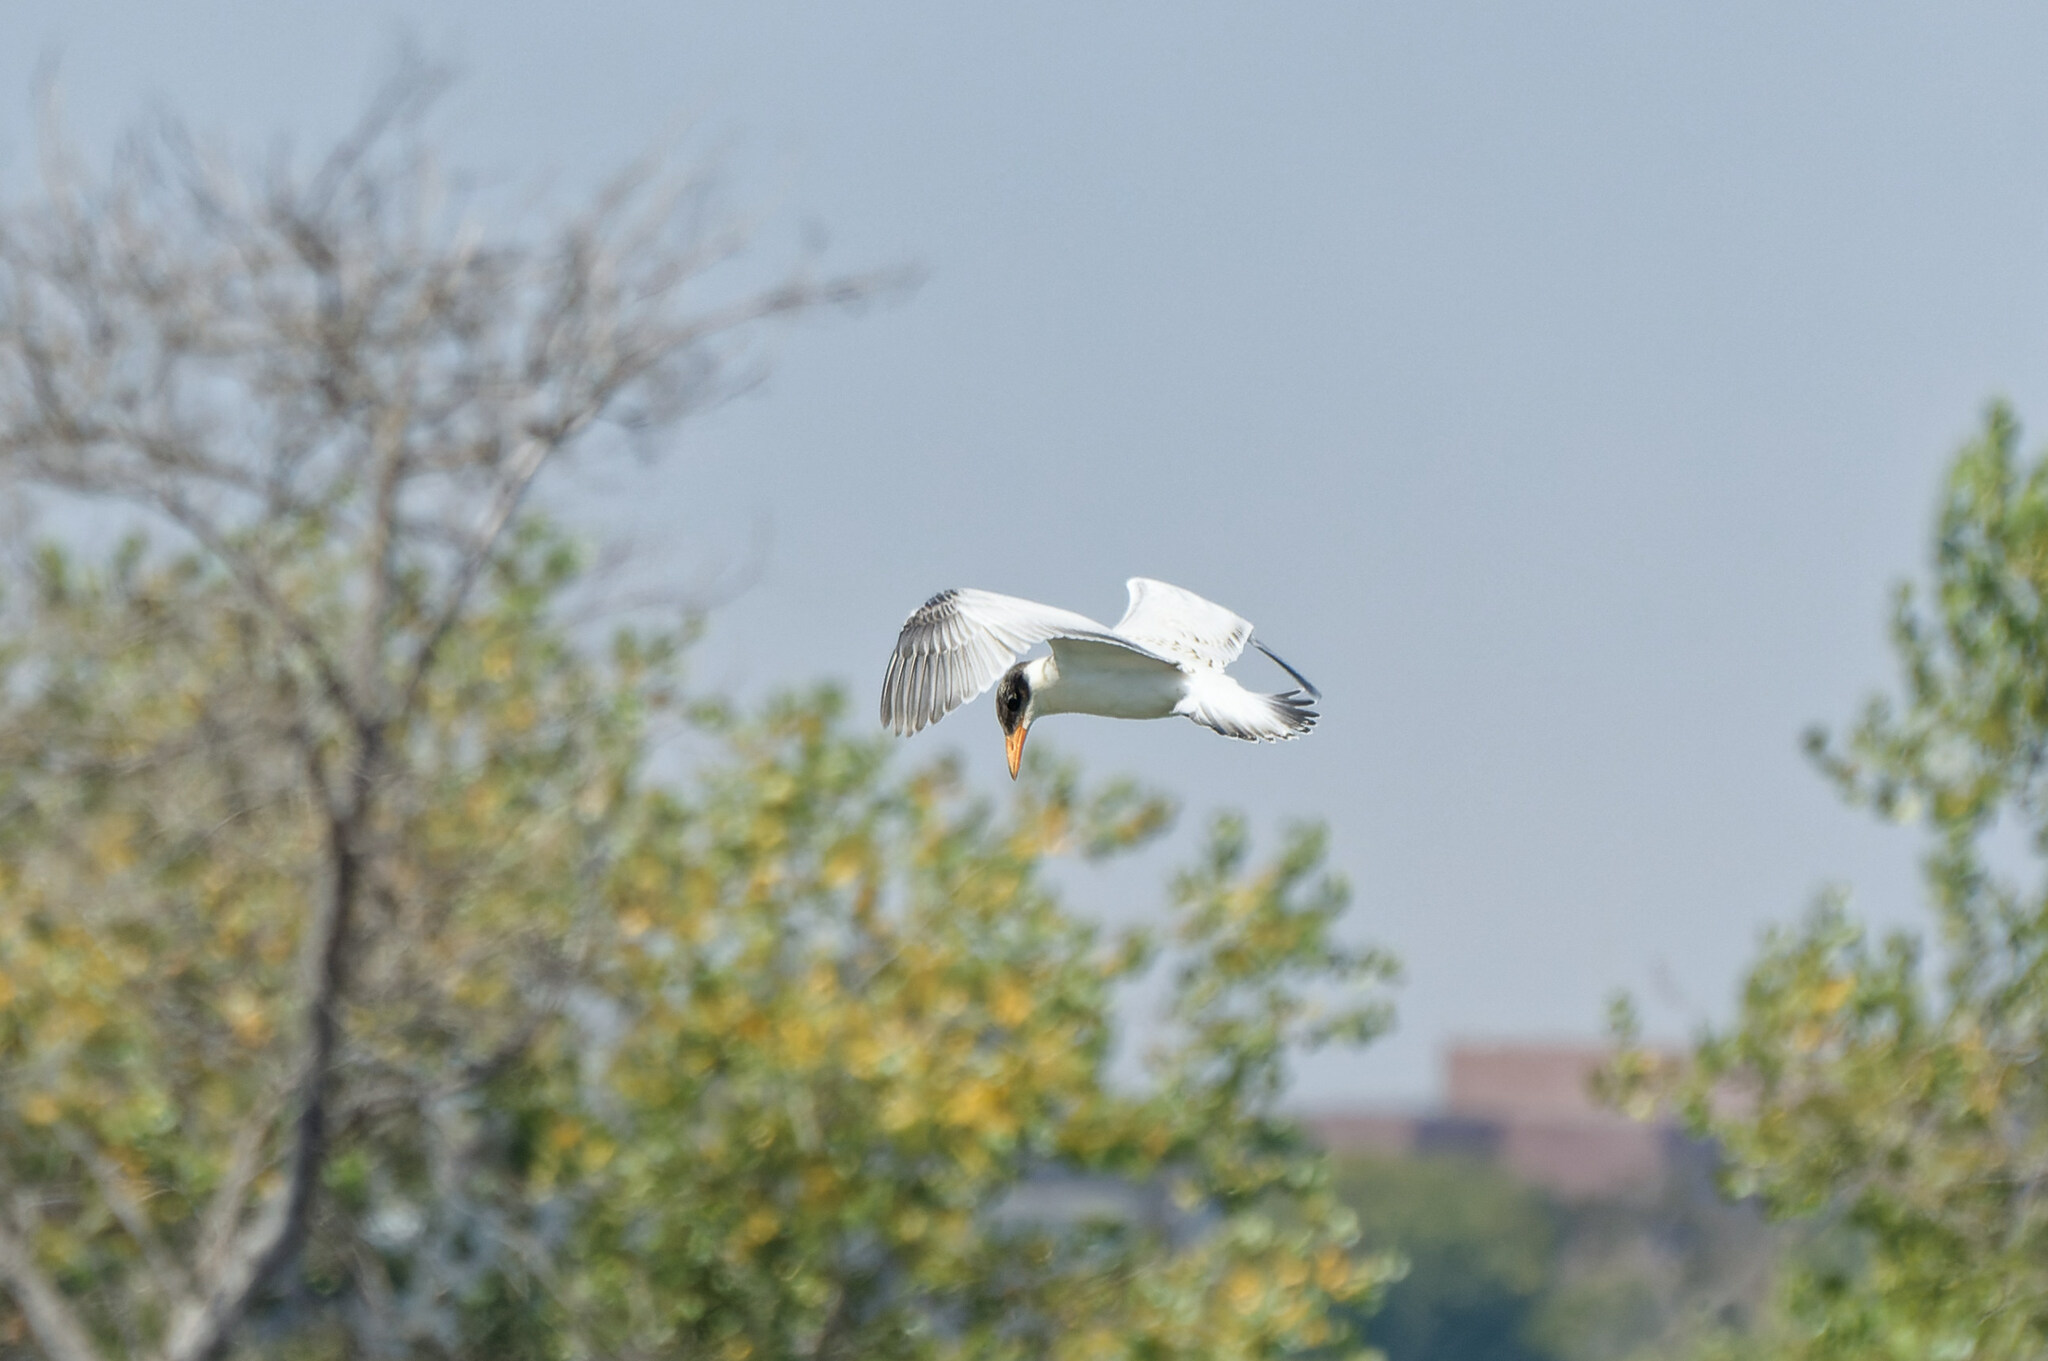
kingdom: Animalia
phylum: Chordata
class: Aves
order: Charadriiformes
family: Laridae
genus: Hydroprogne
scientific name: Hydroprogne caspia
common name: Caspian tern
